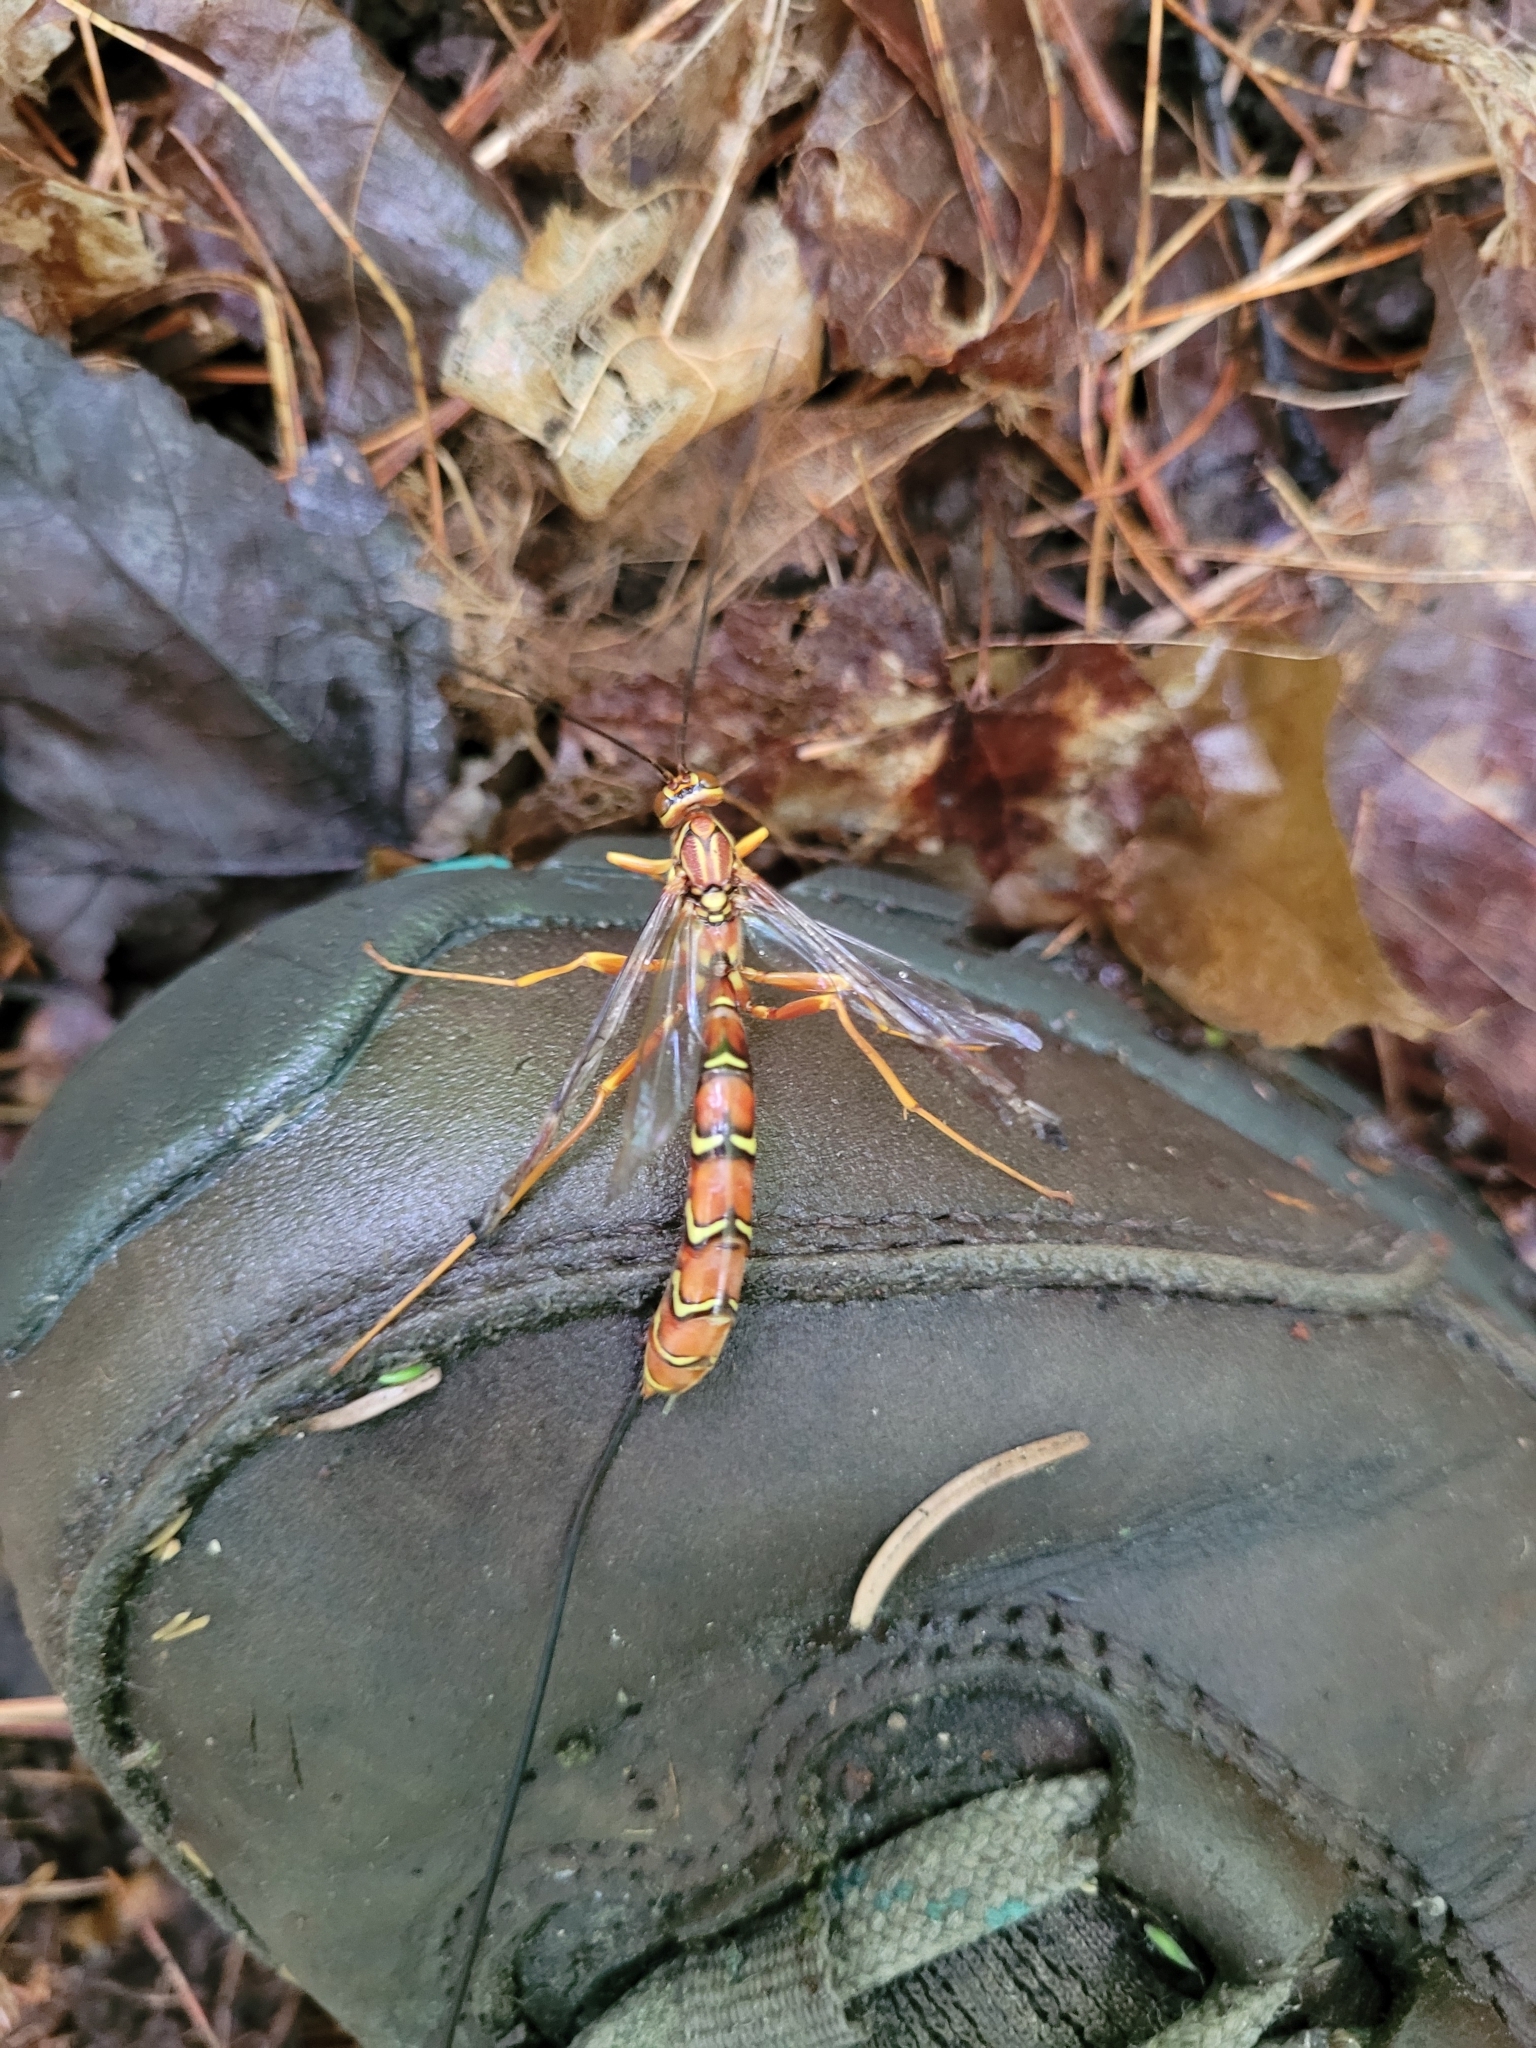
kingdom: Animalia
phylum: Arthropoda
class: Insecta
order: Hymenoptera
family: Ichneumonidae
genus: Megarhyssa
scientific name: Megarhyssa greenei
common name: Greene's giant ichneumonid wasp
